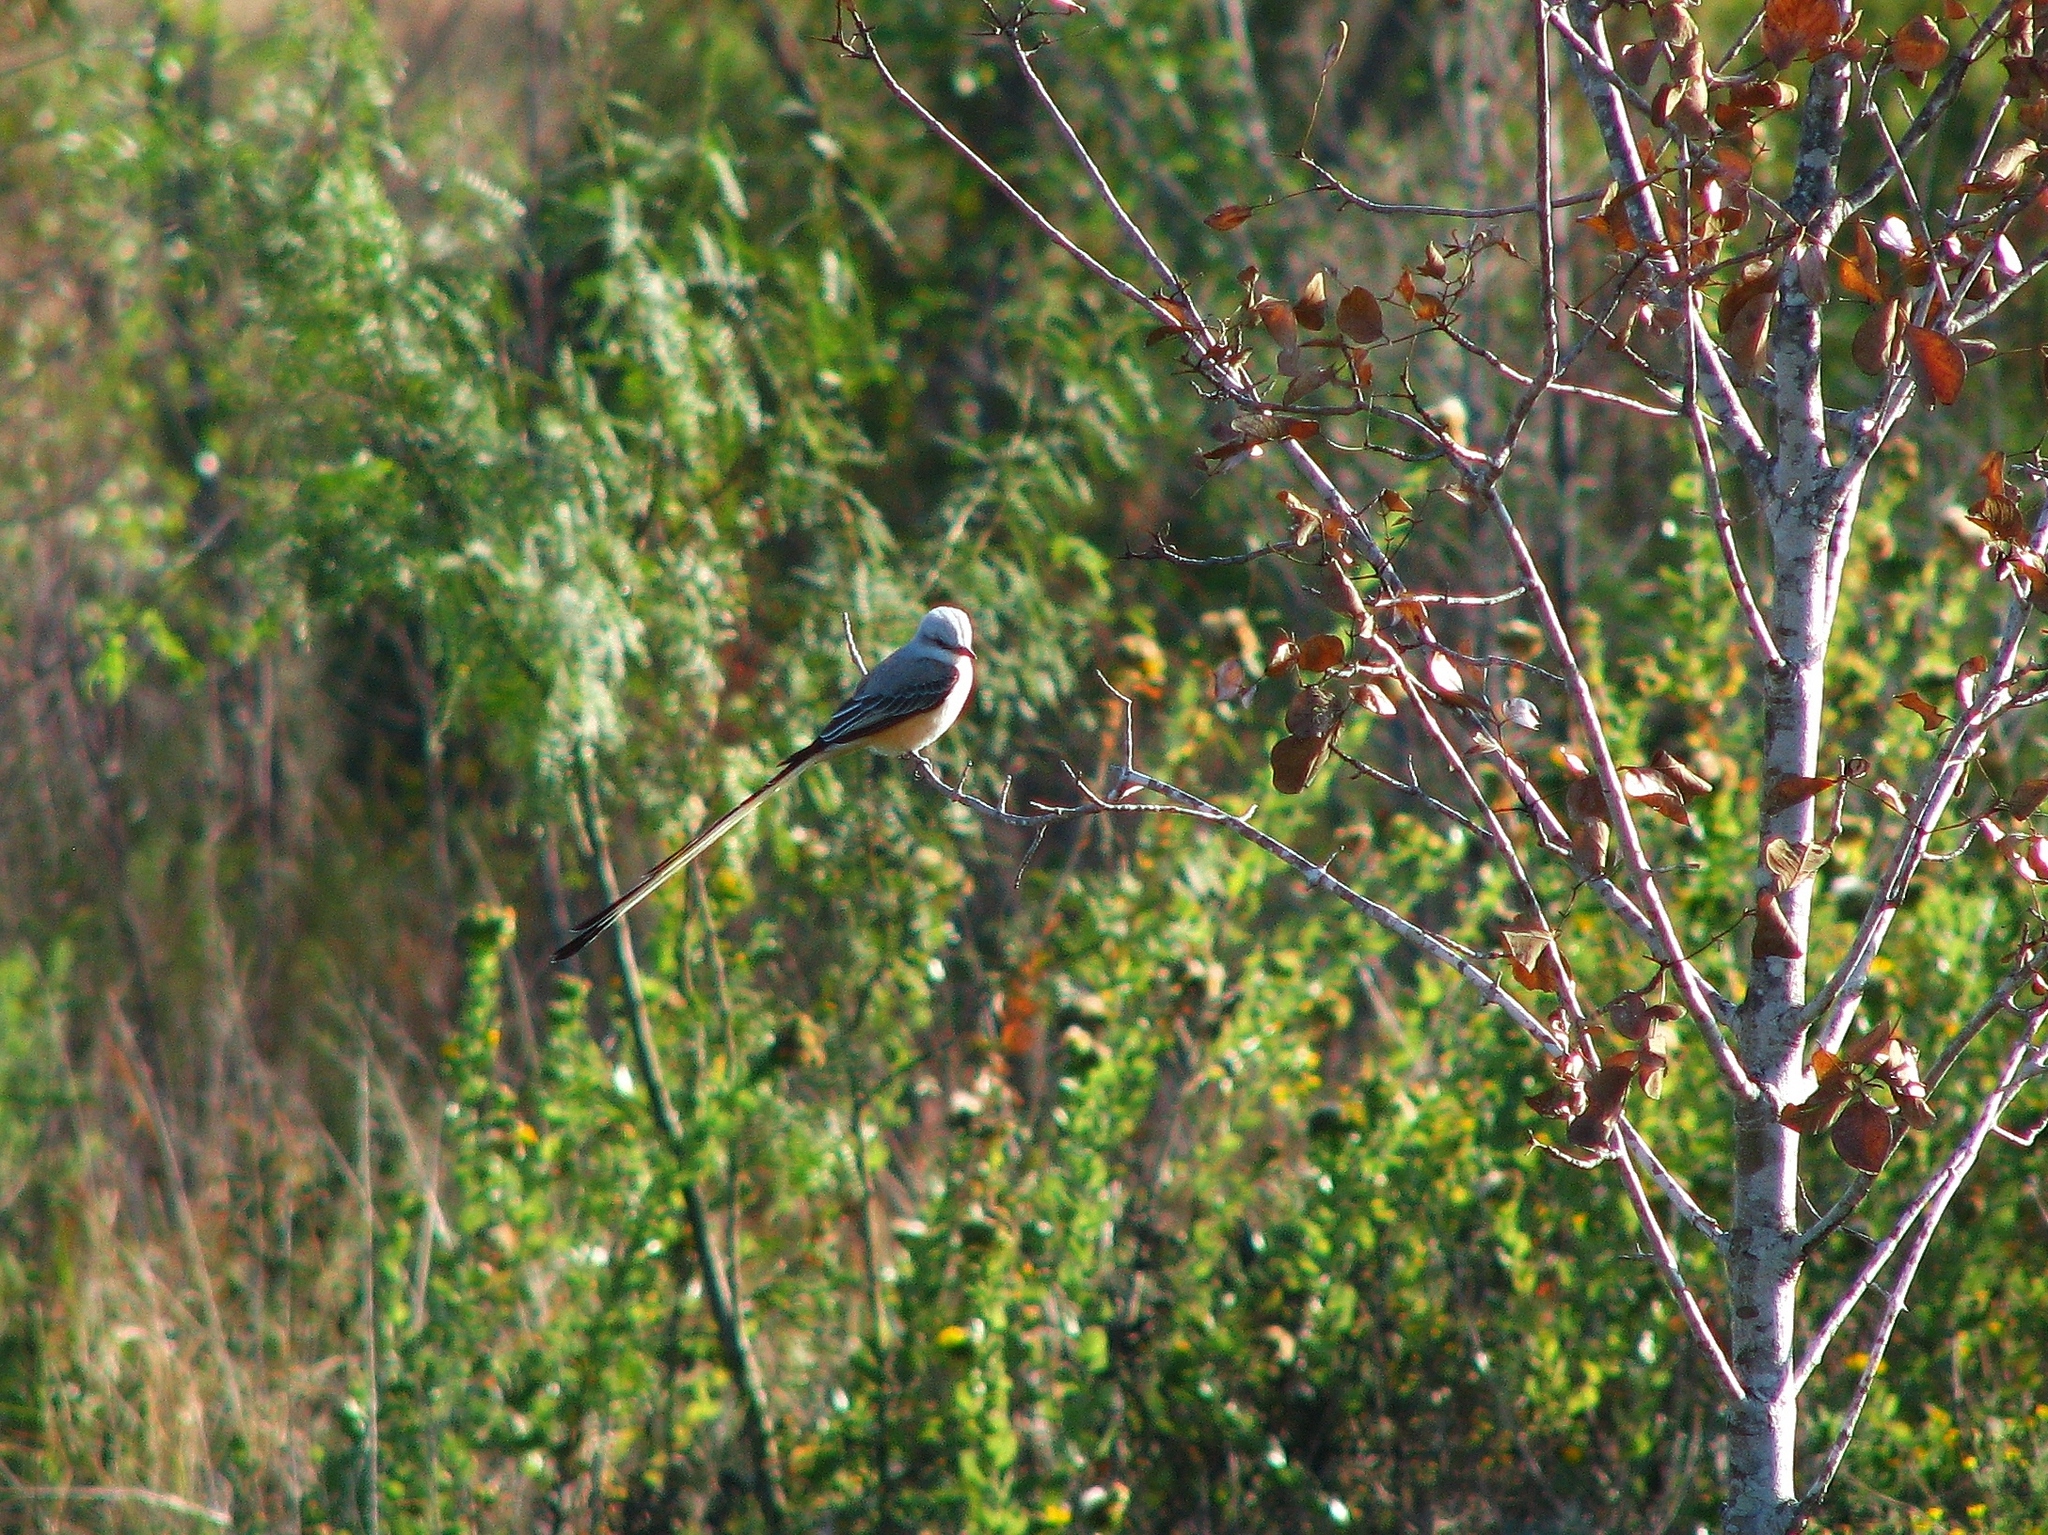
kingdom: Animalia
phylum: Chordata
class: Aves
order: Passeriformes
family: Tyrannidae
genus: Tyrannus
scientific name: Tyrannus forficatus
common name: Scissor-tailed flycatcher
